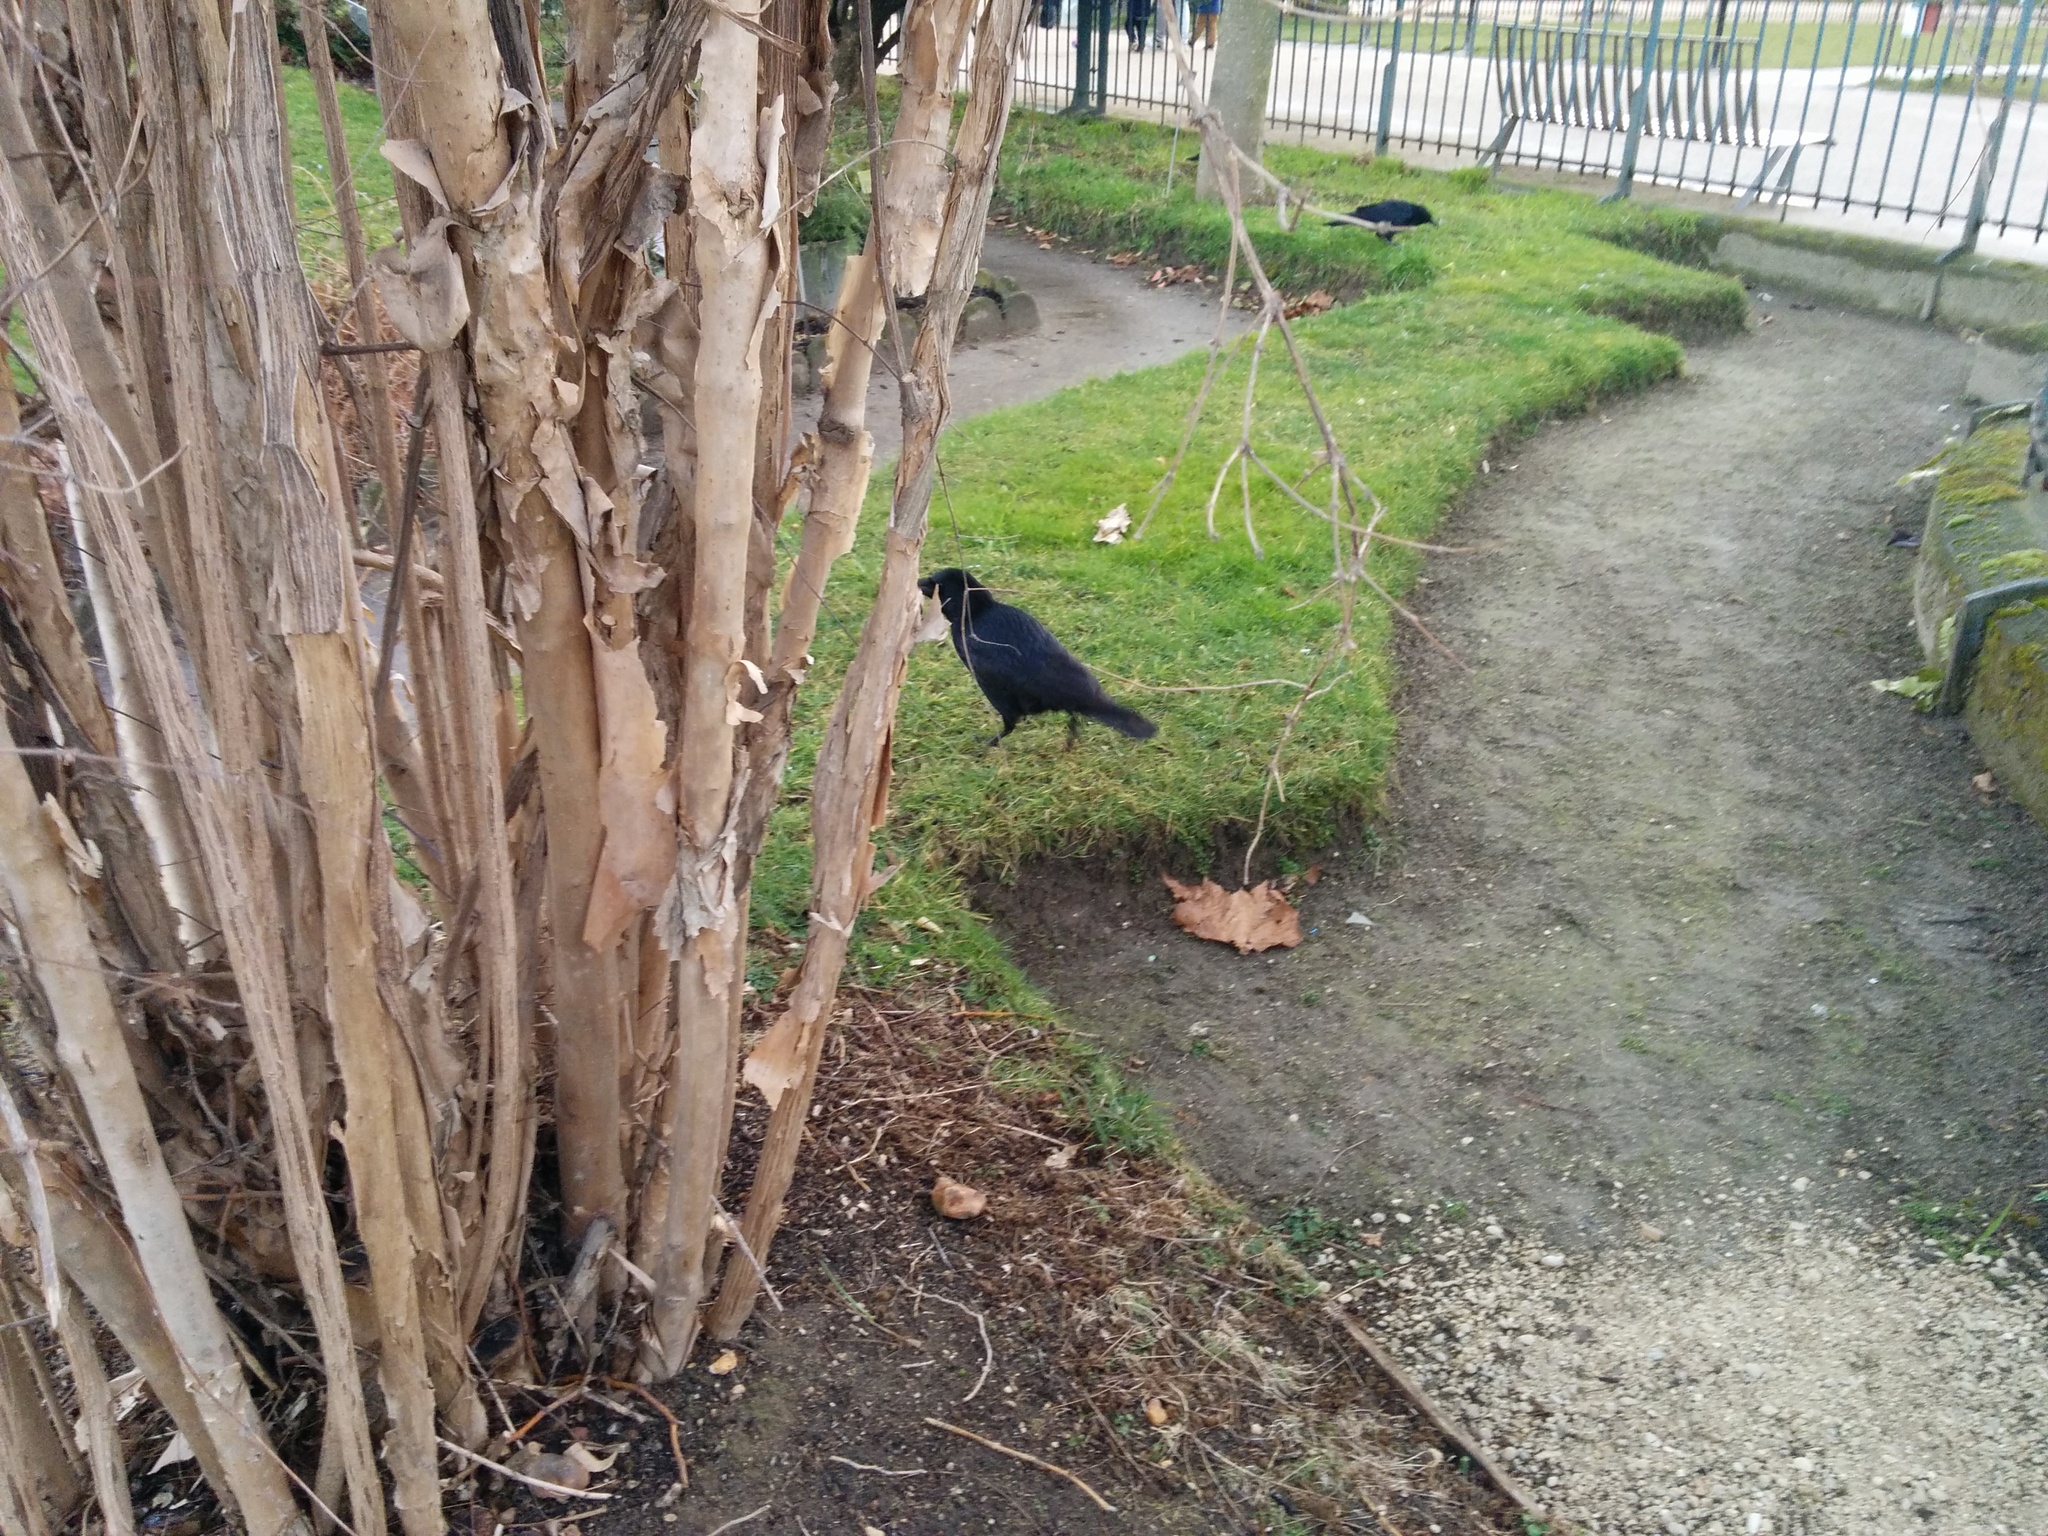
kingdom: Animalia
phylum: Chordata
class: Aves
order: Passeriformes
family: Corvidae
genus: Corvus
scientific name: Corvus corone
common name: Carrion crow
